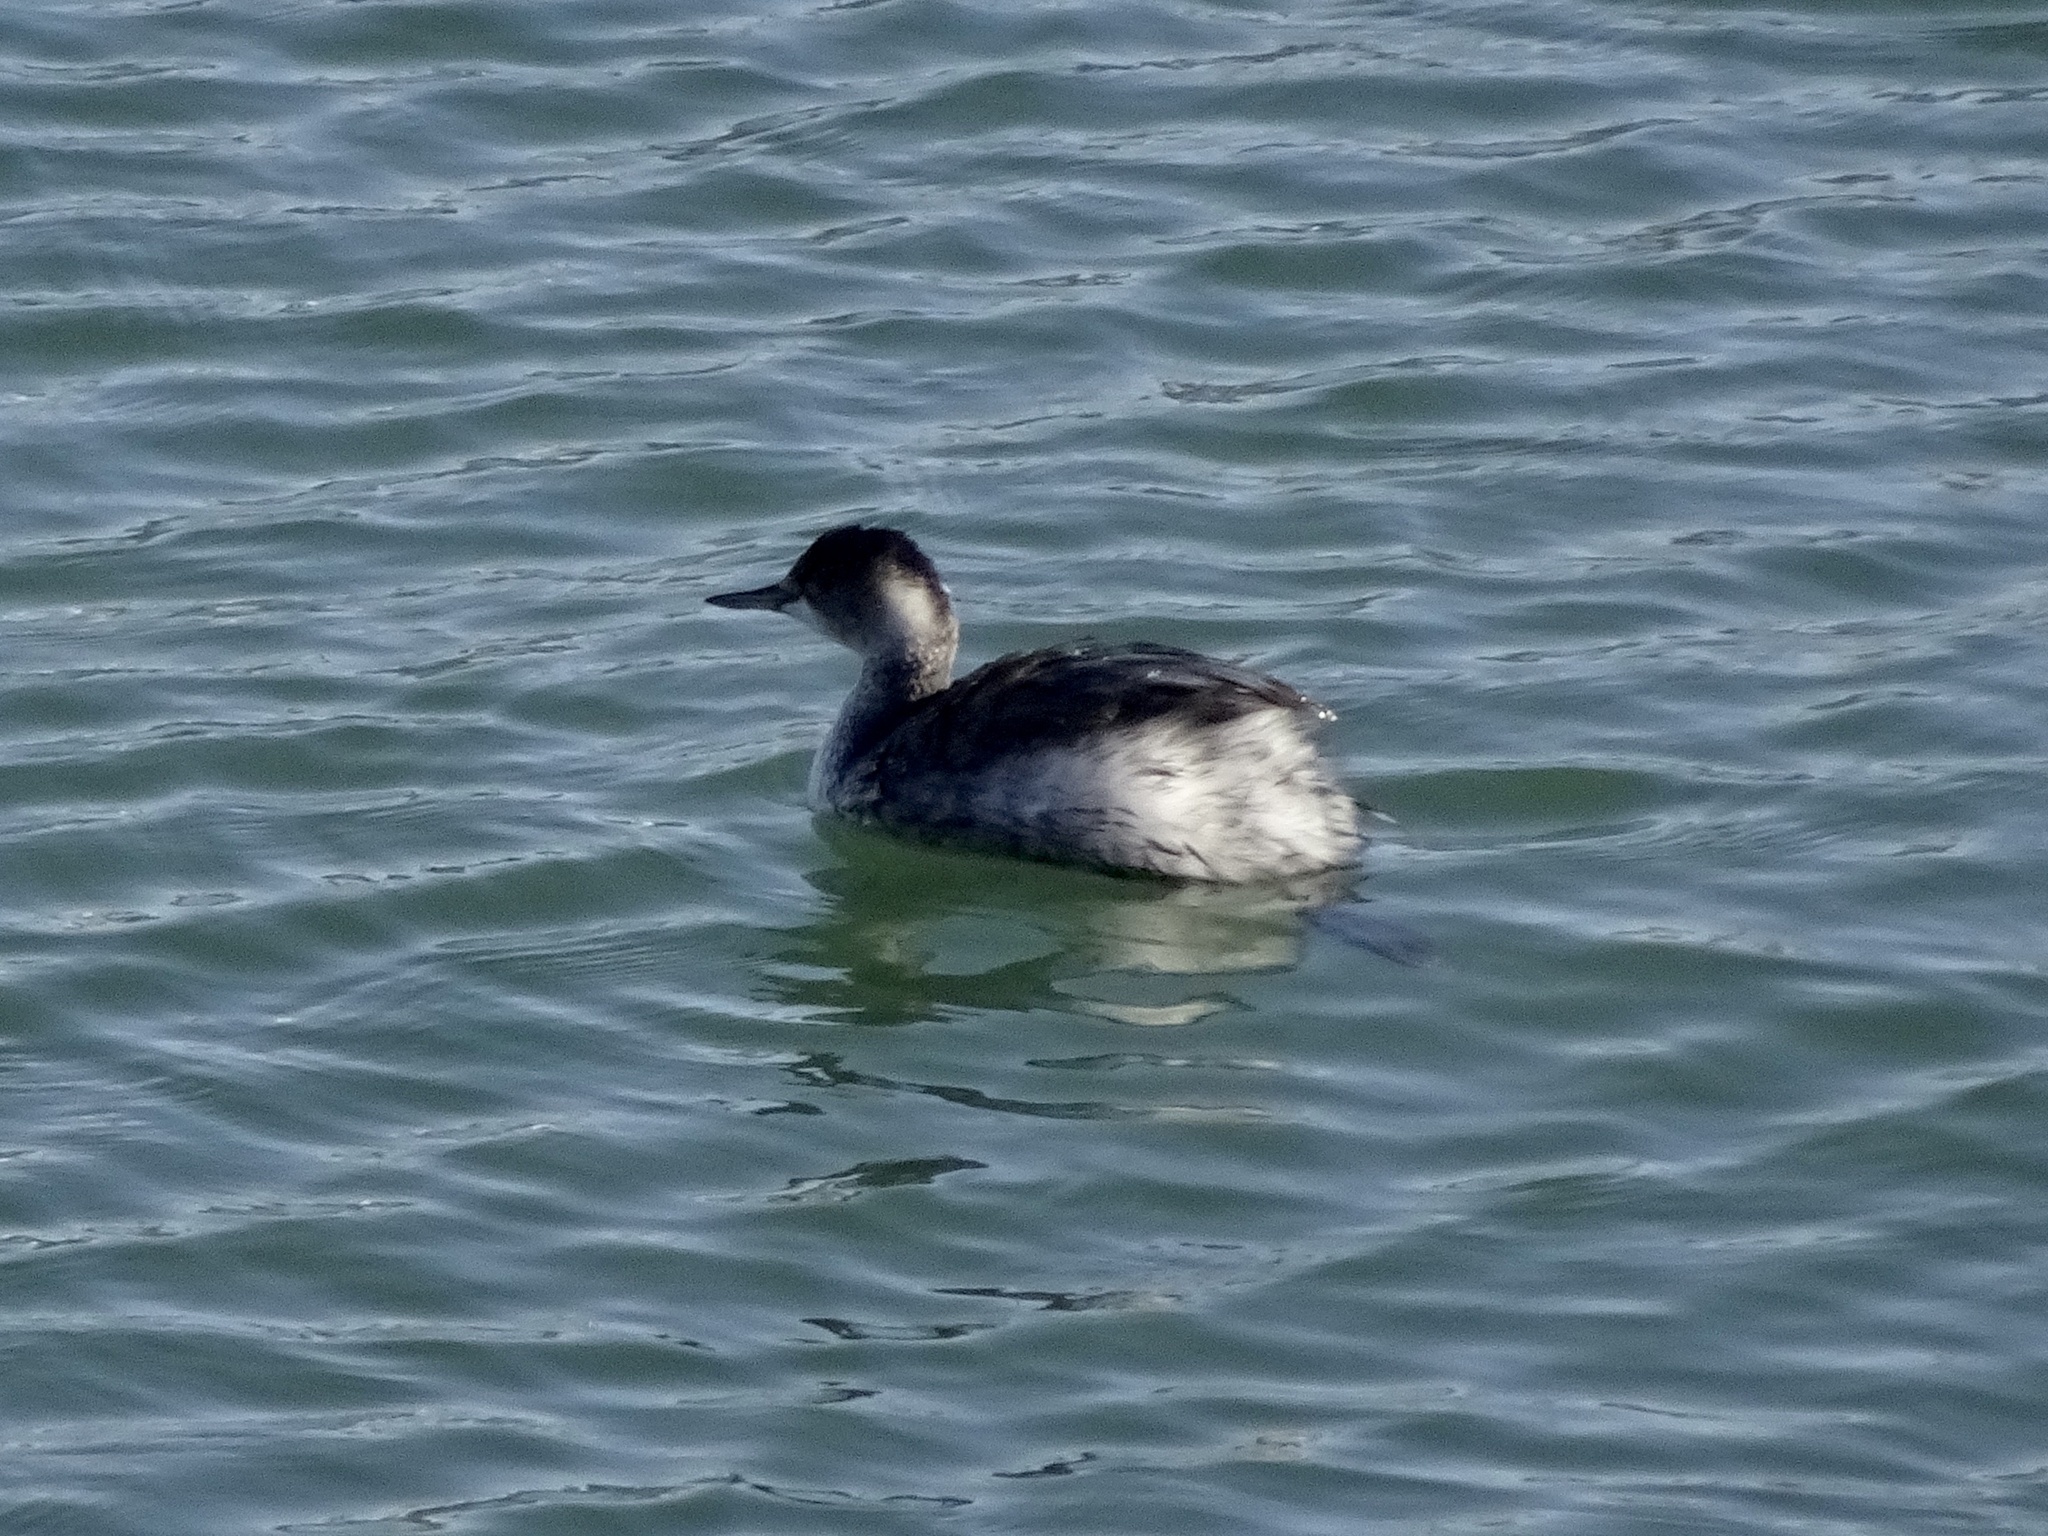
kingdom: Animalia
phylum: Chordata
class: Aves
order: Podicipediformes
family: Podicipedidae
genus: Podiceps
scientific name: Podiceps nigricollis
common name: Black-necked grebe
